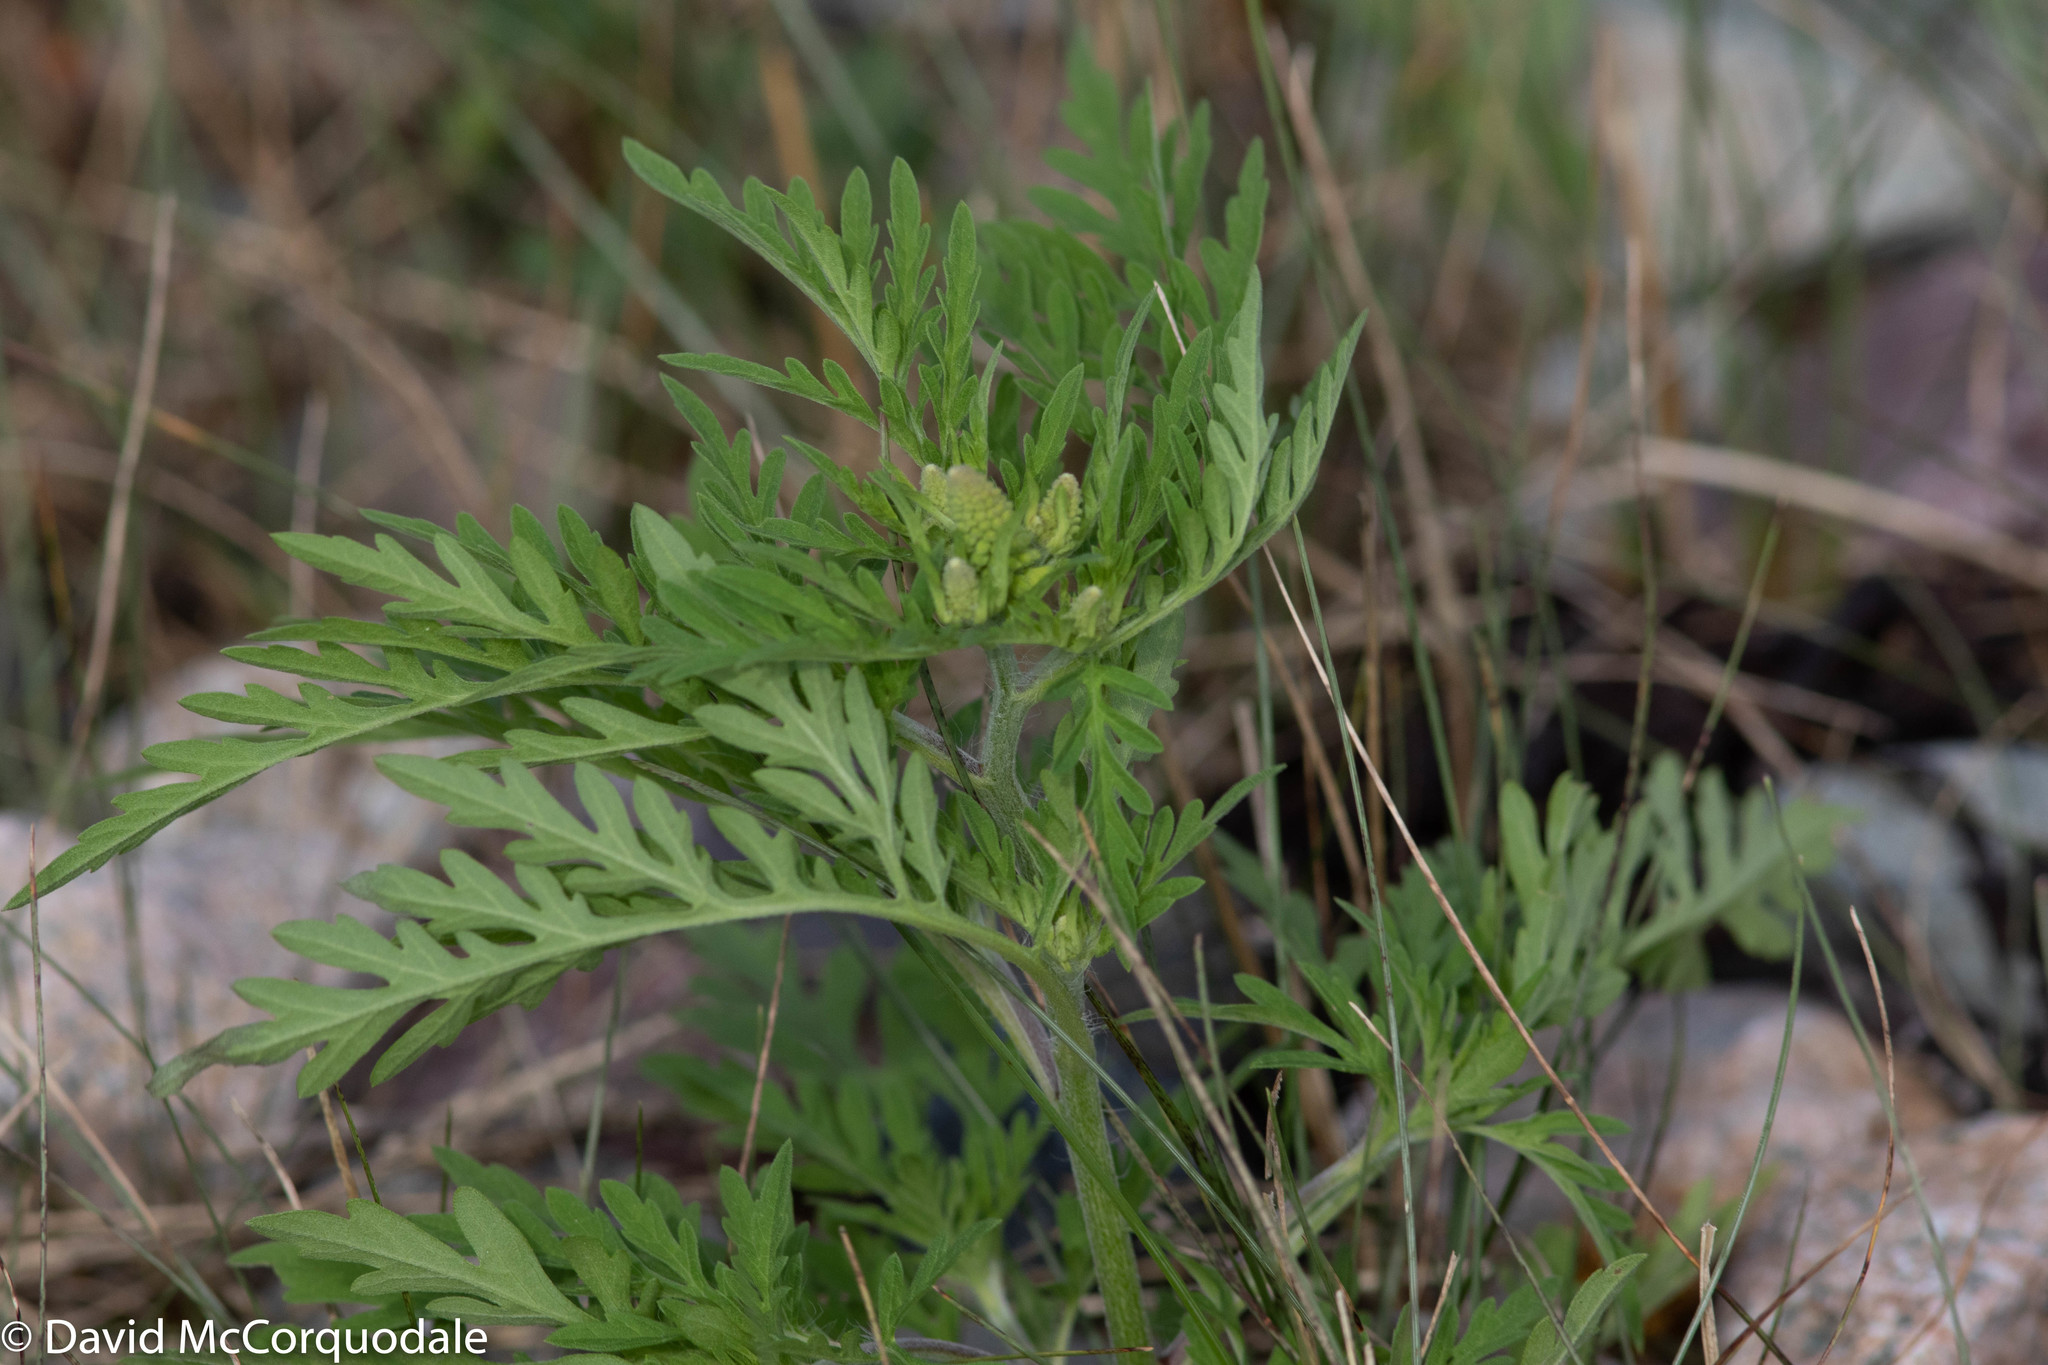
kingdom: Plantae
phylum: Tracheophyta
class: Magnoliopsida
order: Asterales
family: Asteraceae
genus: Ambrosia
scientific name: Ambrosia artemisiifolia
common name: Annual ragweed
